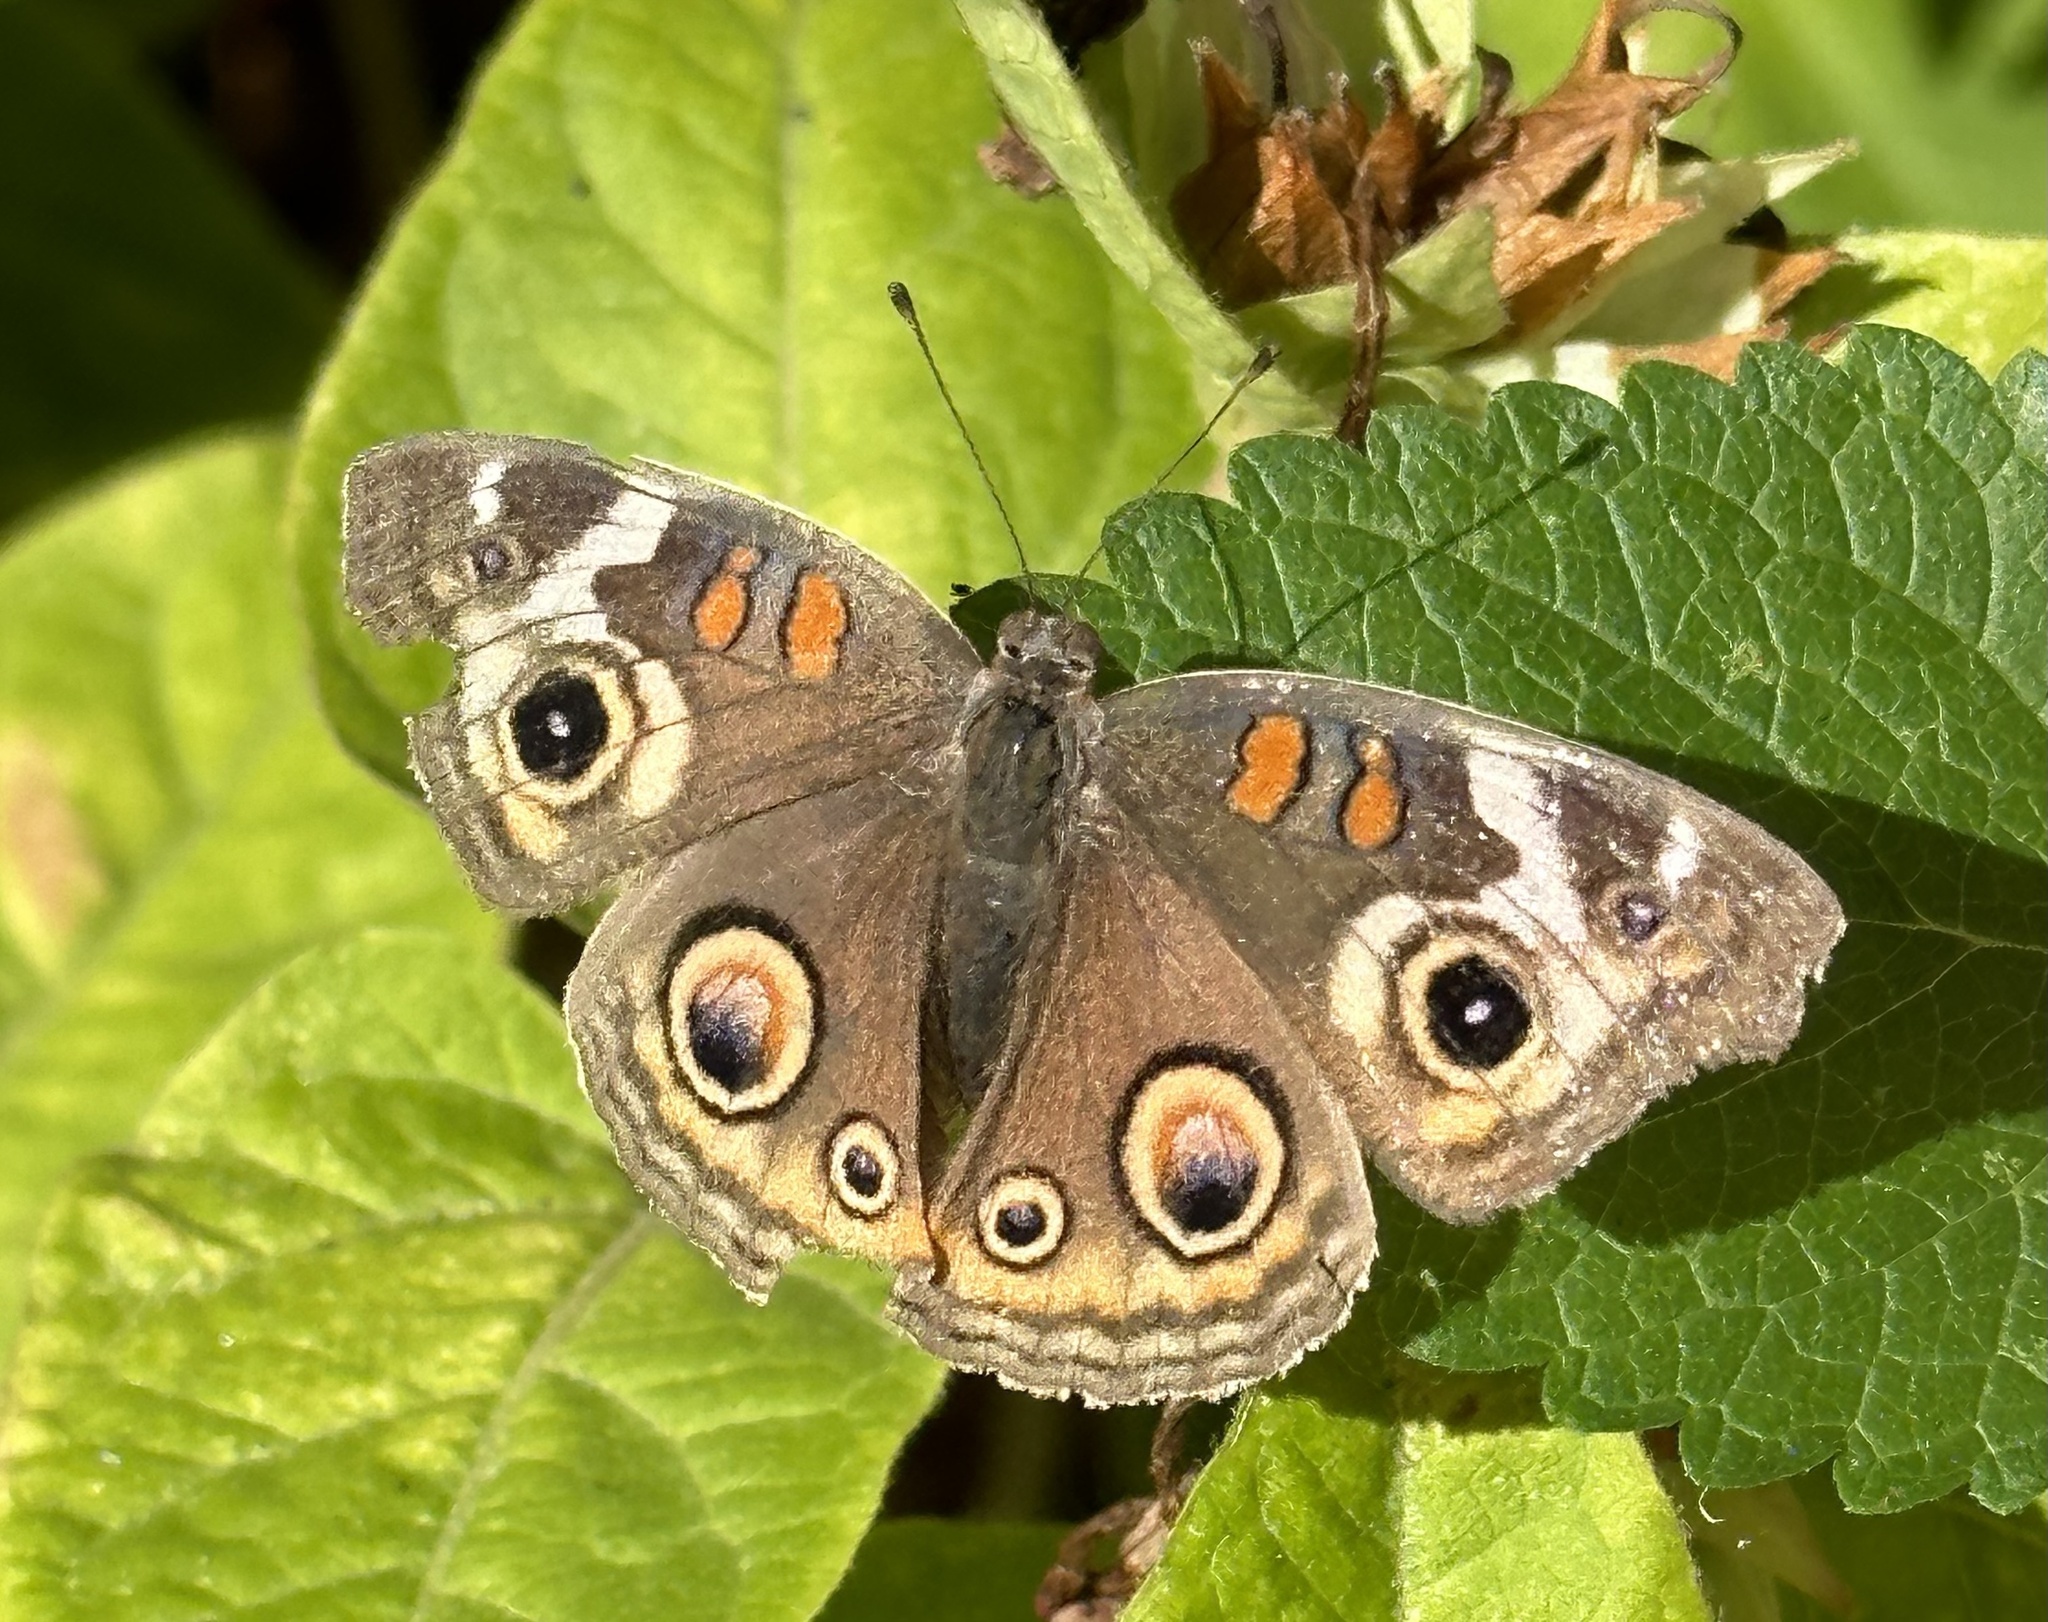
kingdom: Animalia
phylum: Arthropoda
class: Insecta
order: Lepidoptera
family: Nymphalidae
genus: Junonia
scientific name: Junonia grisea
